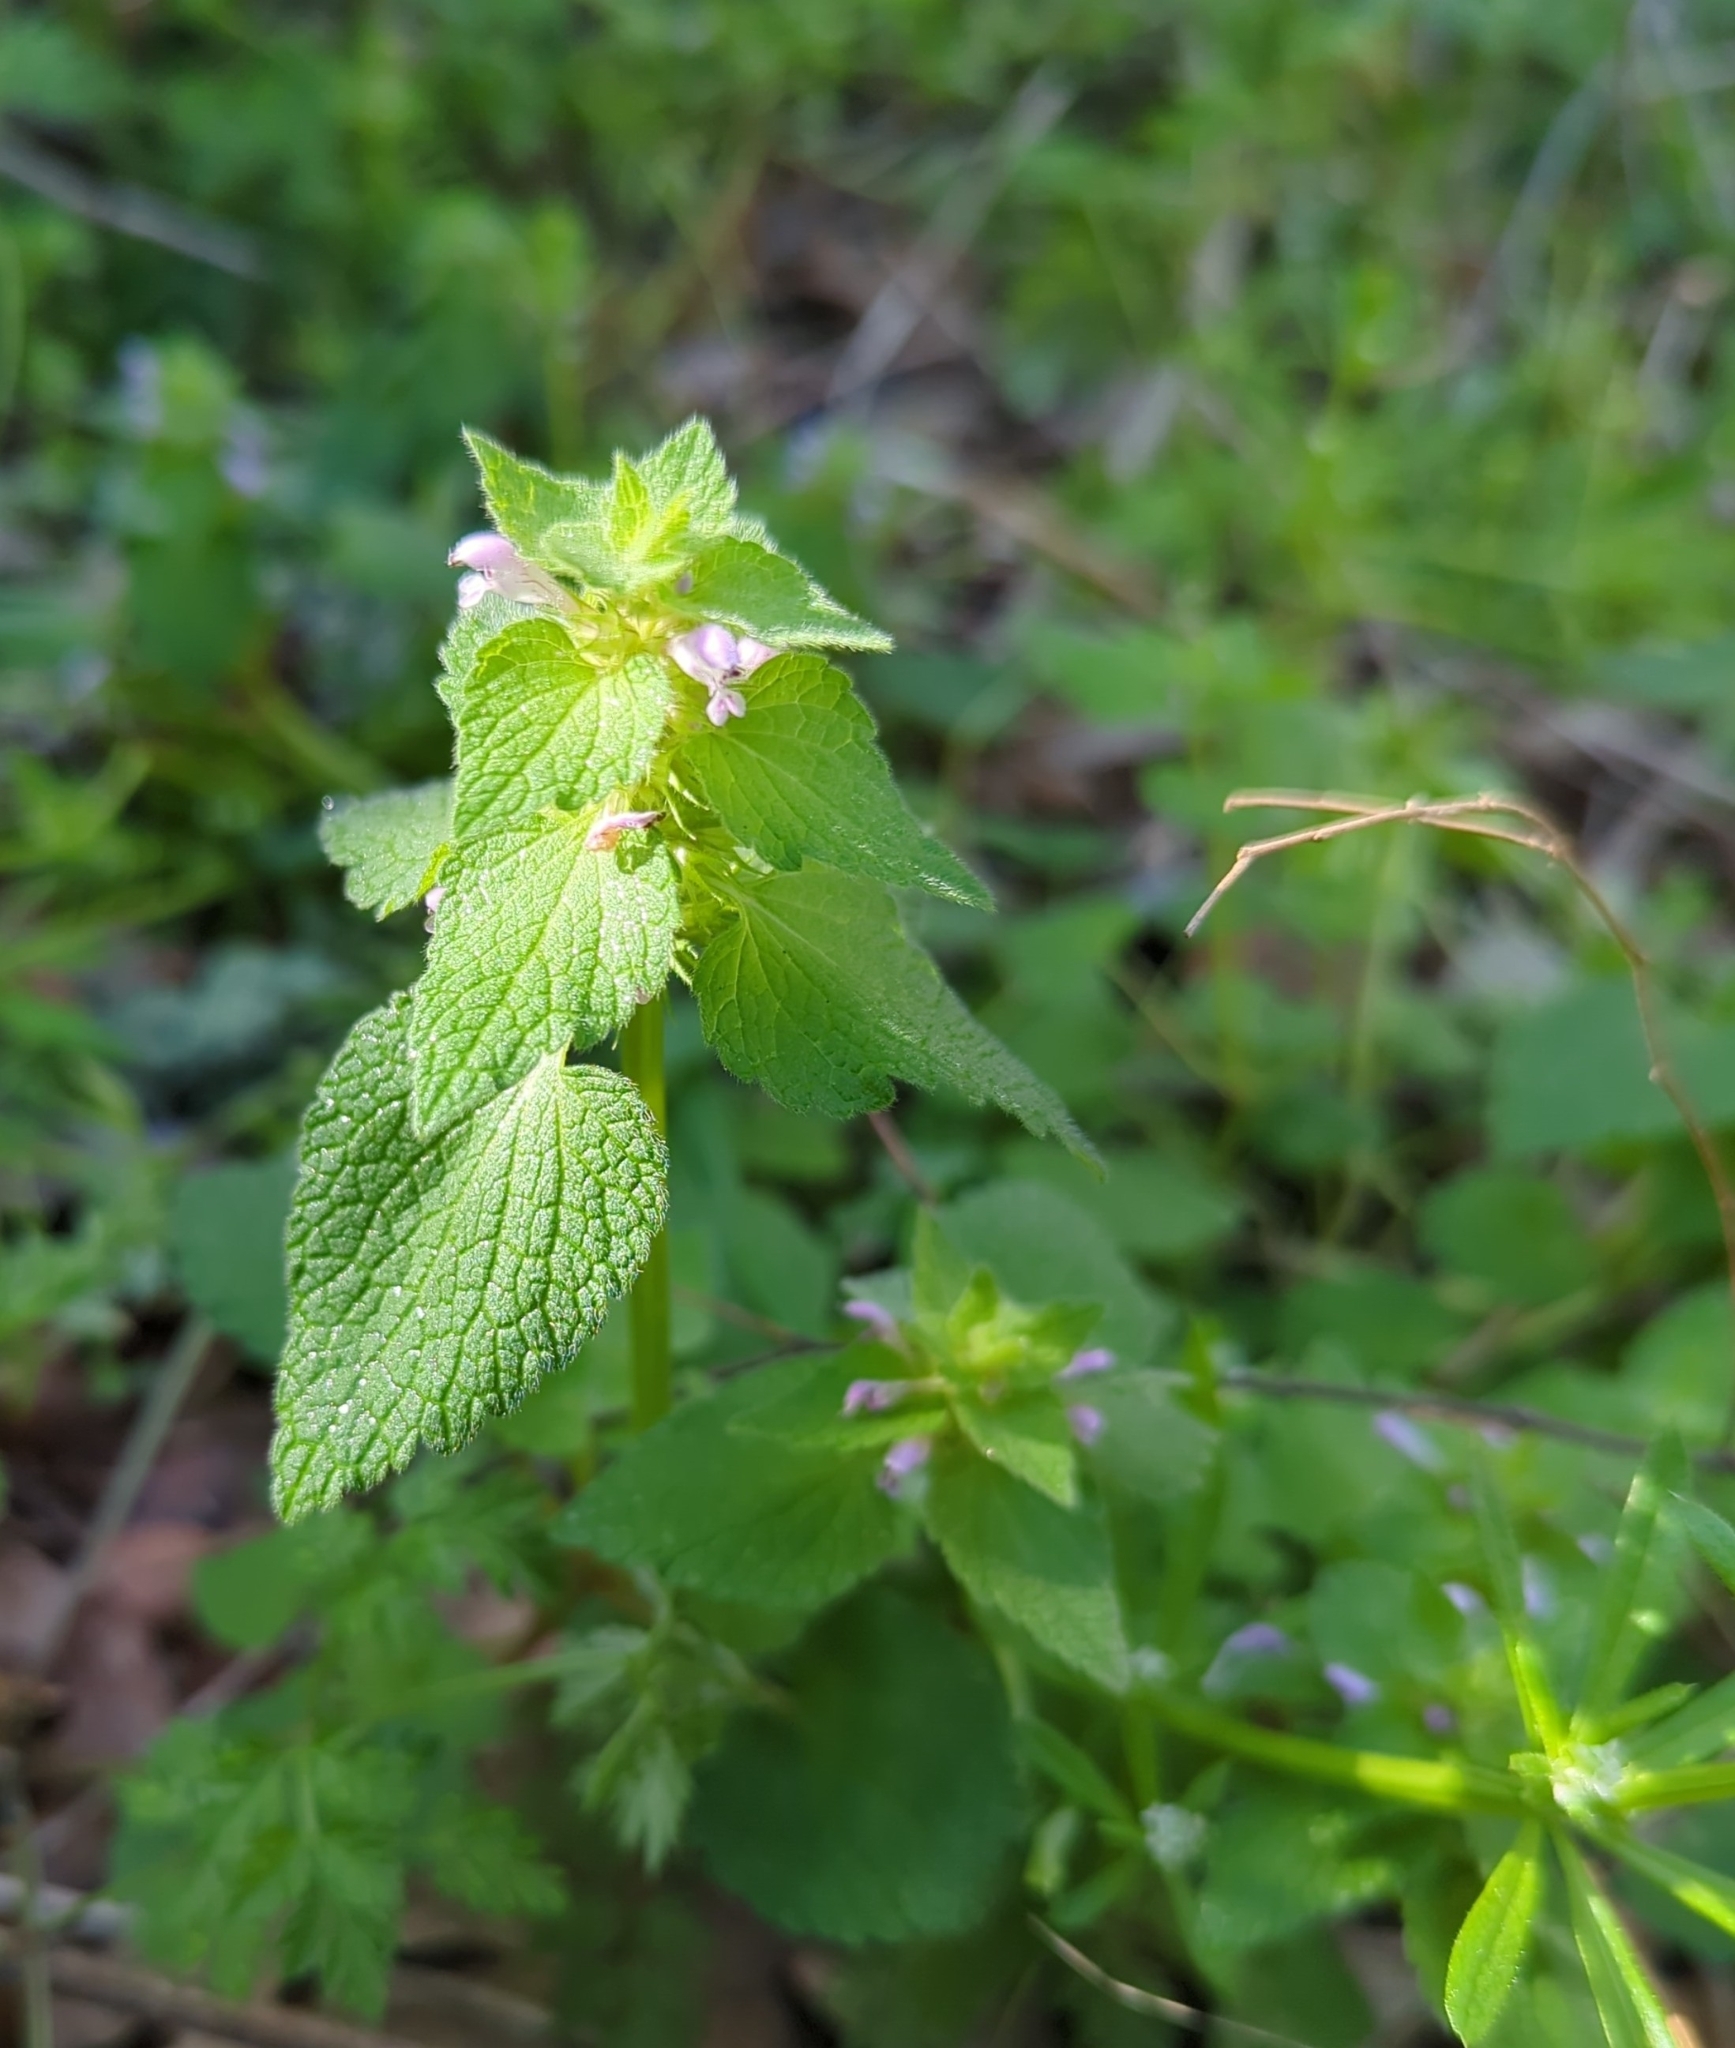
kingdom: Plantae
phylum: Tracheophyta
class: Magnoliopsida
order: Lamiales
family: Lamiaceae
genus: Lamium
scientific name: Lamium purpureum
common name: Red dead-nettle
